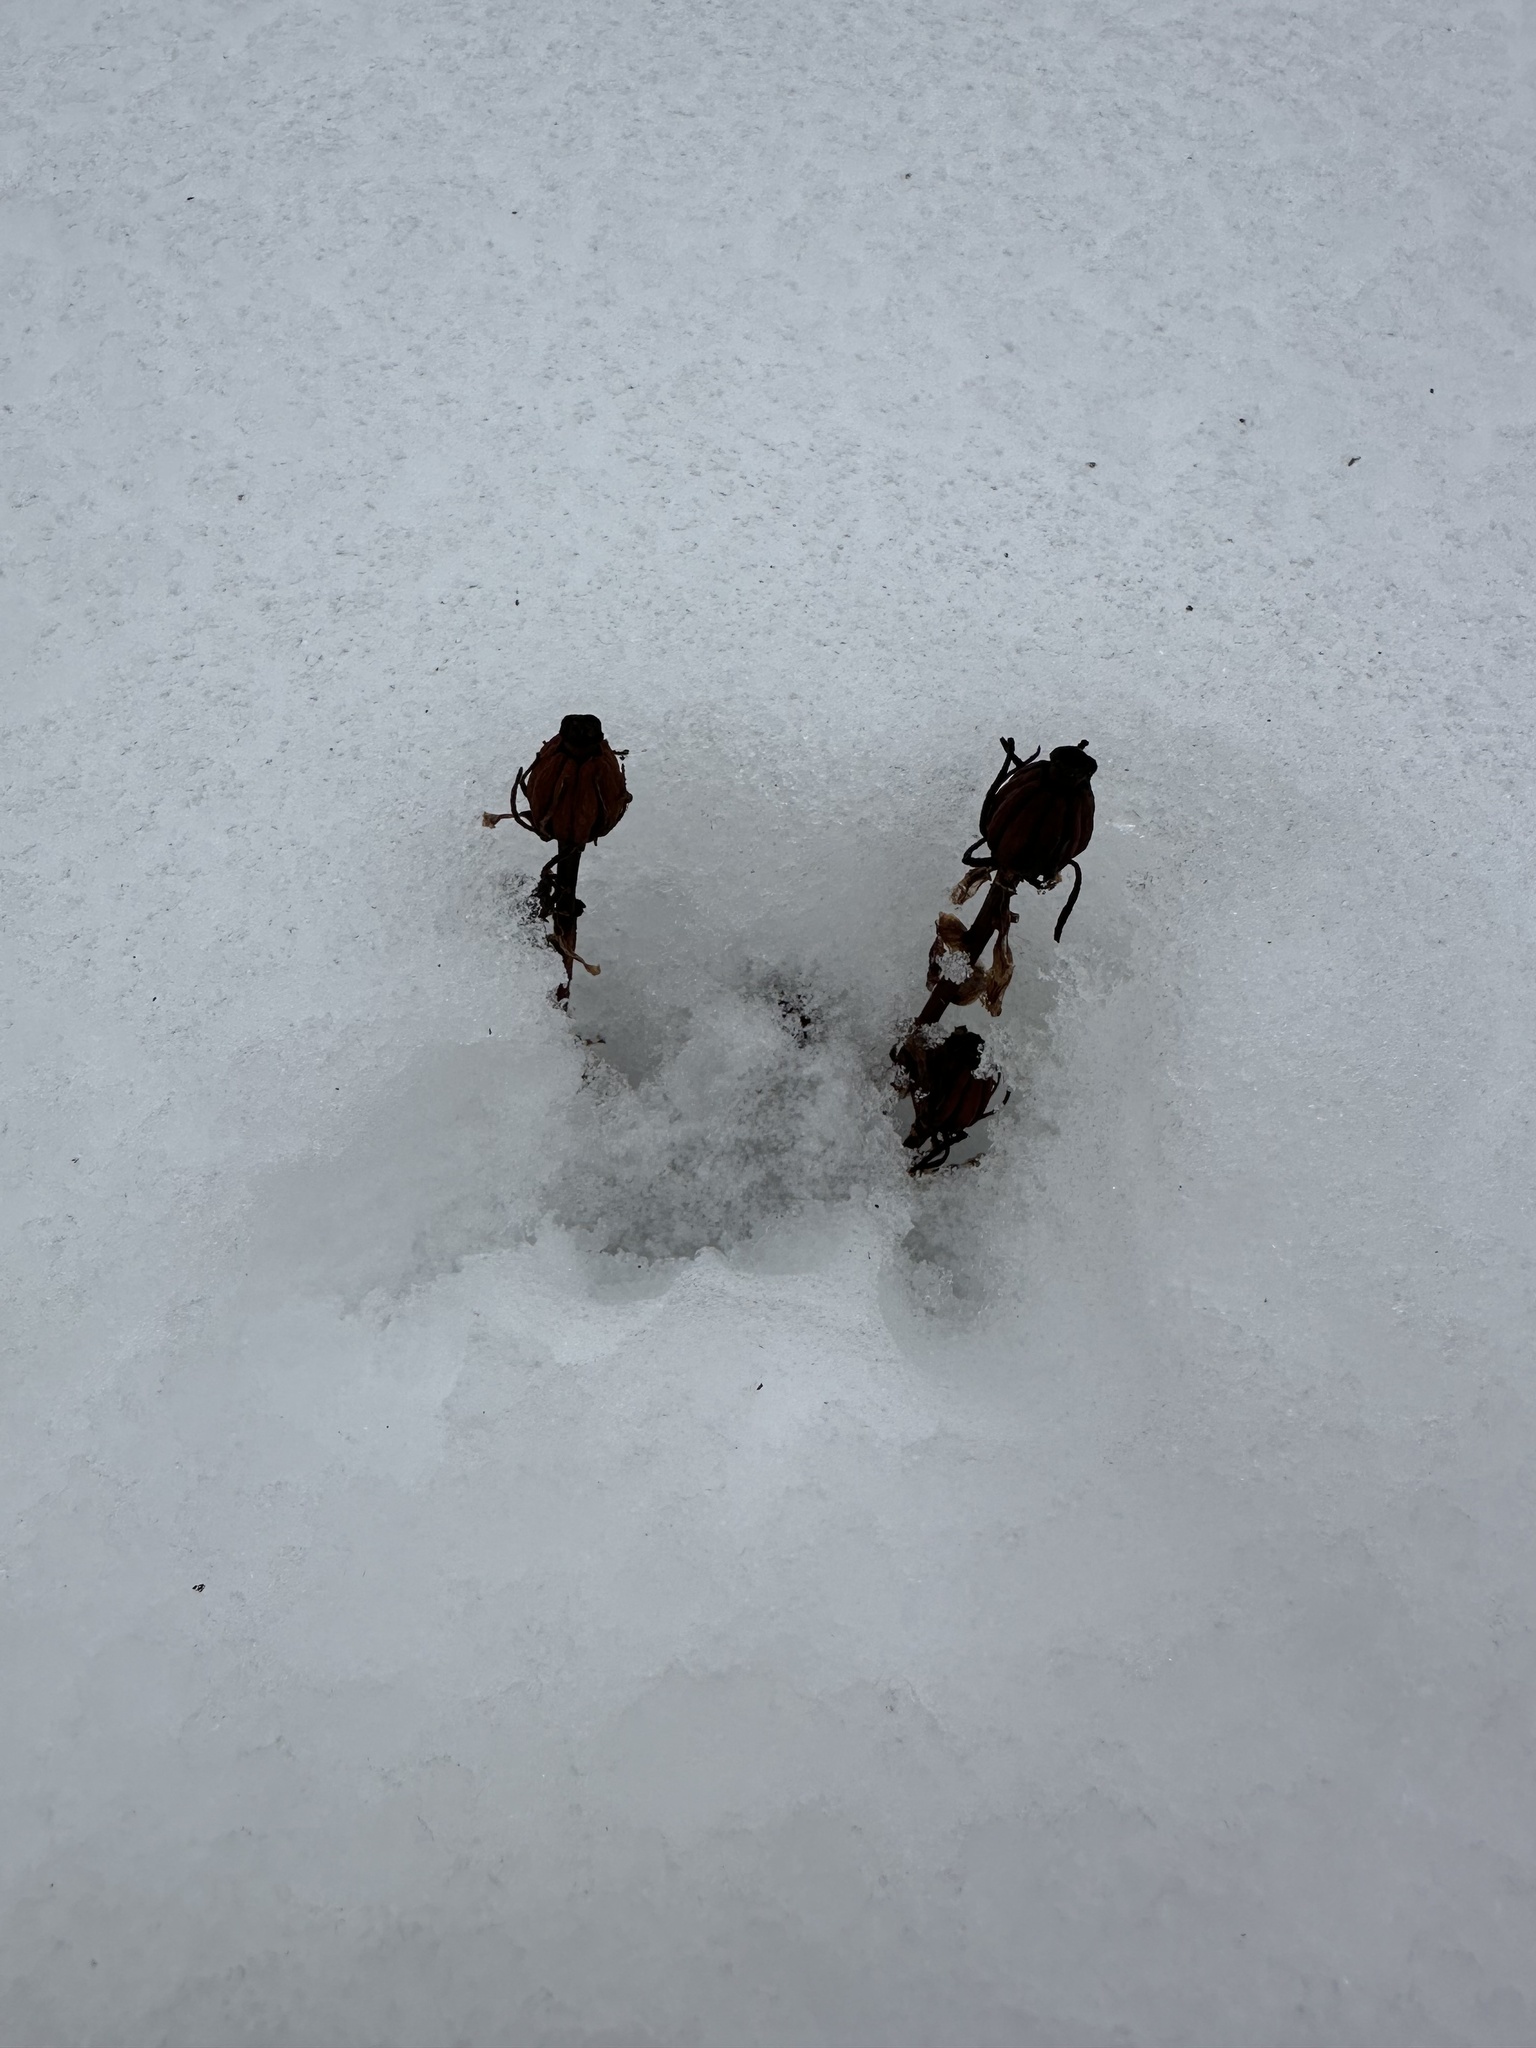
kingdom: Plantae
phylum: Tracheophyta
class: Magnoliopsida
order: Ericales
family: Ericaceae
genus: Monotropa
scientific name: Monotropa uniflora
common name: Convulsion root
